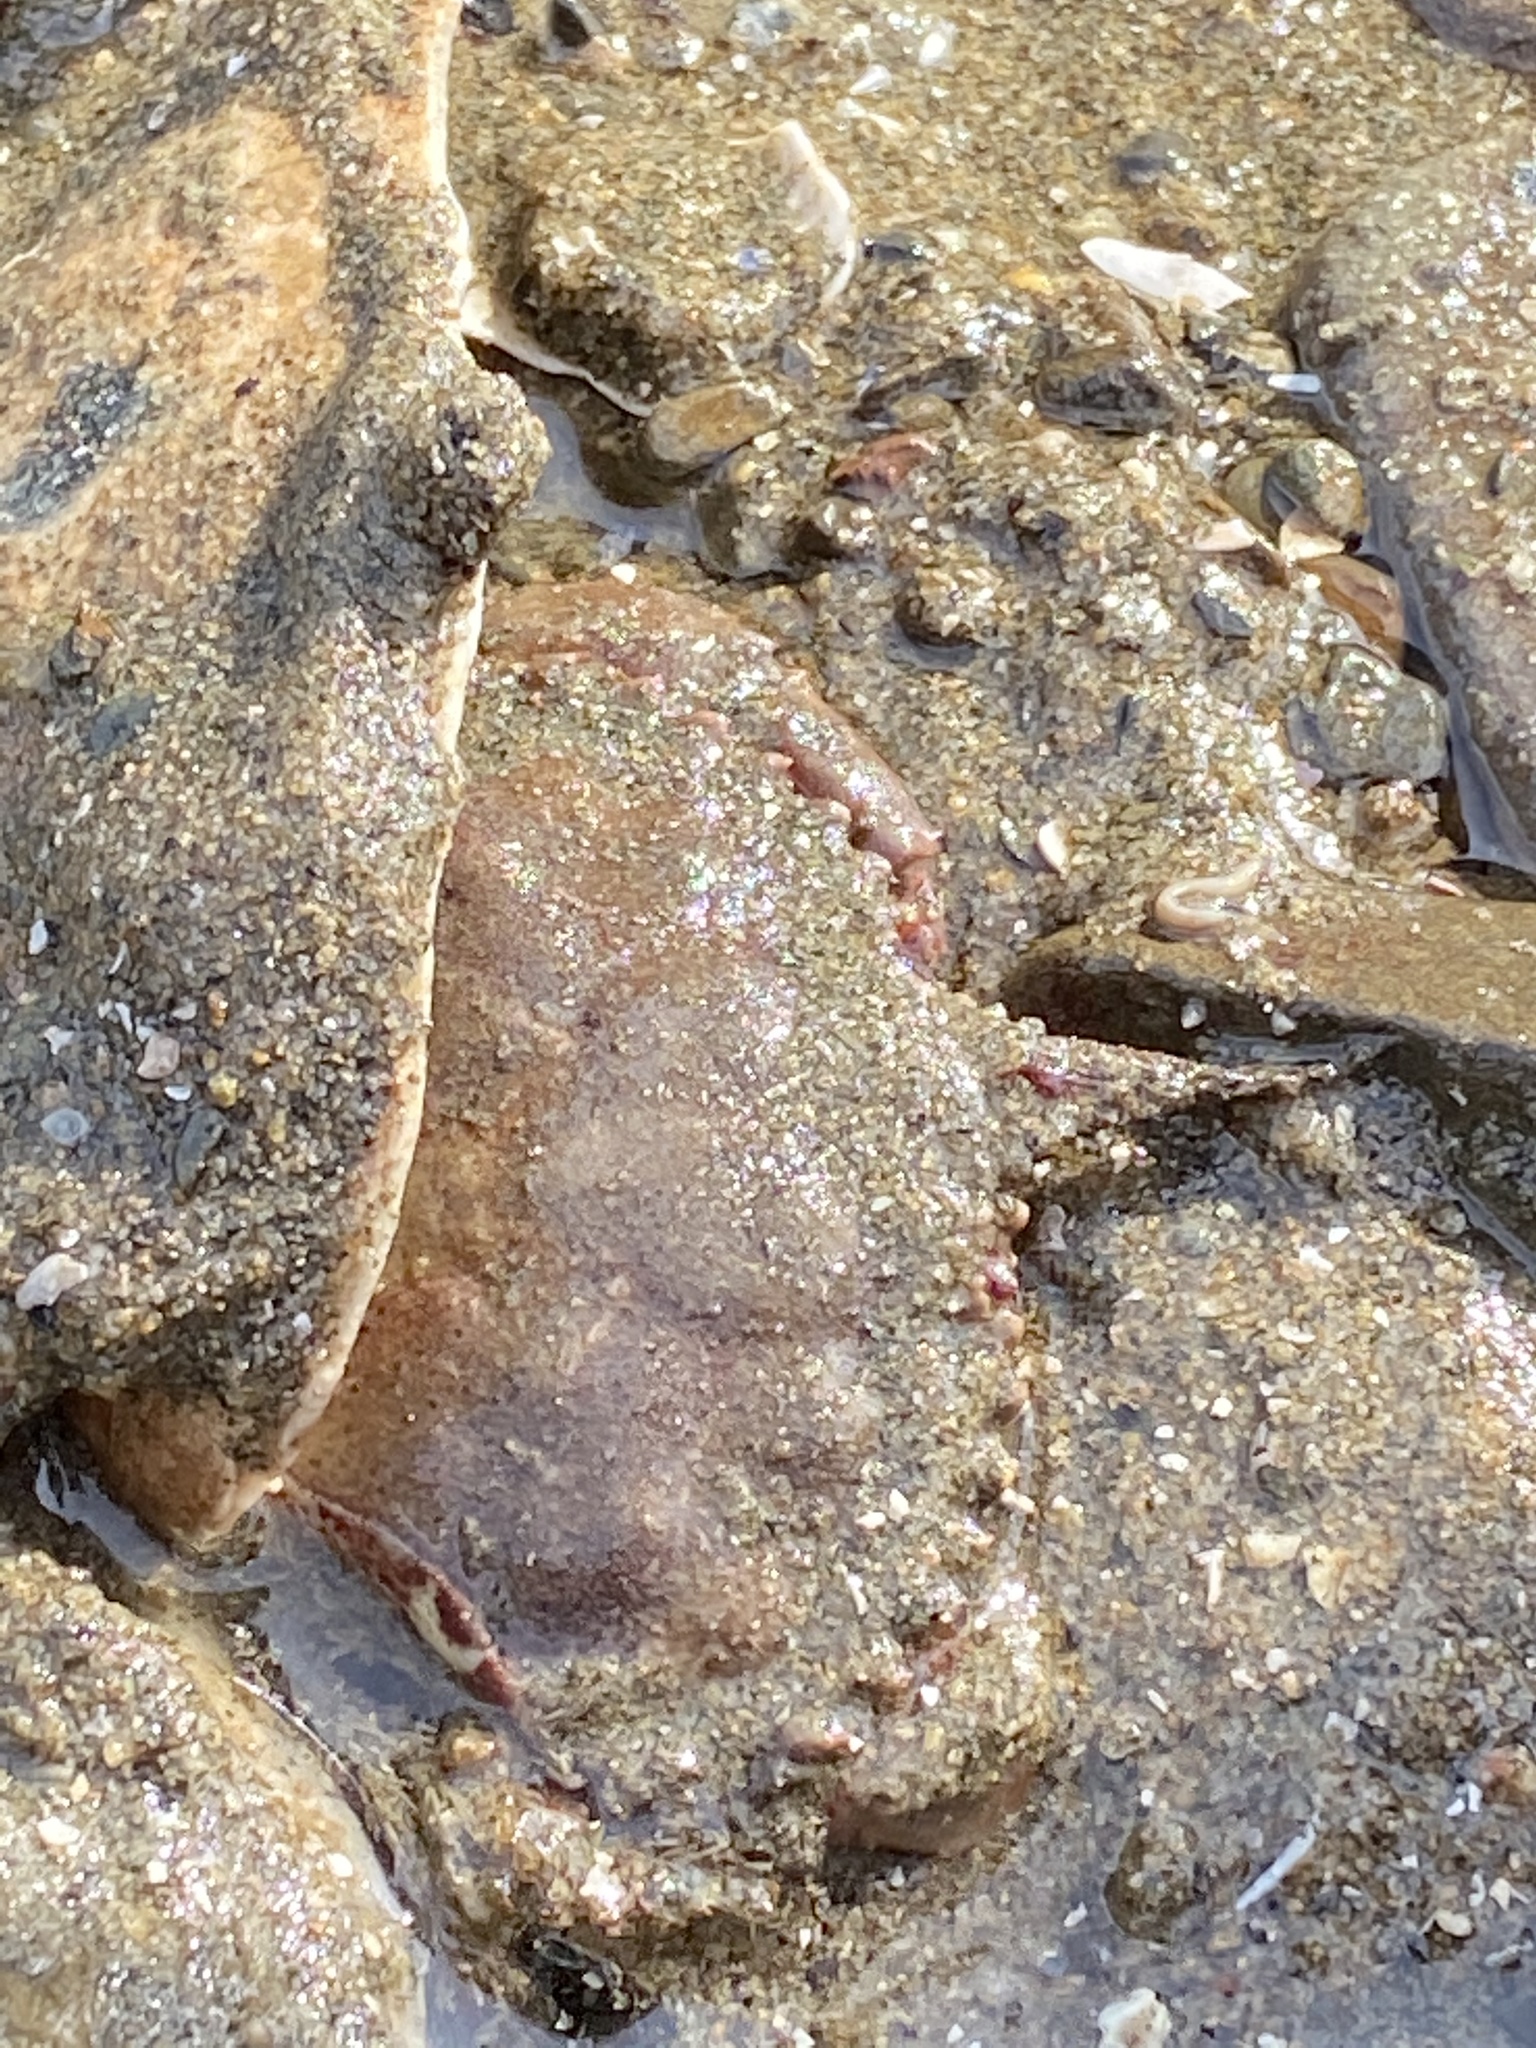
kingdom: Animalia
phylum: Arthropoda
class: Malacostraca
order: Decapoda
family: Cancridae
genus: Romaleon
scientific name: Romaleon antennarium
